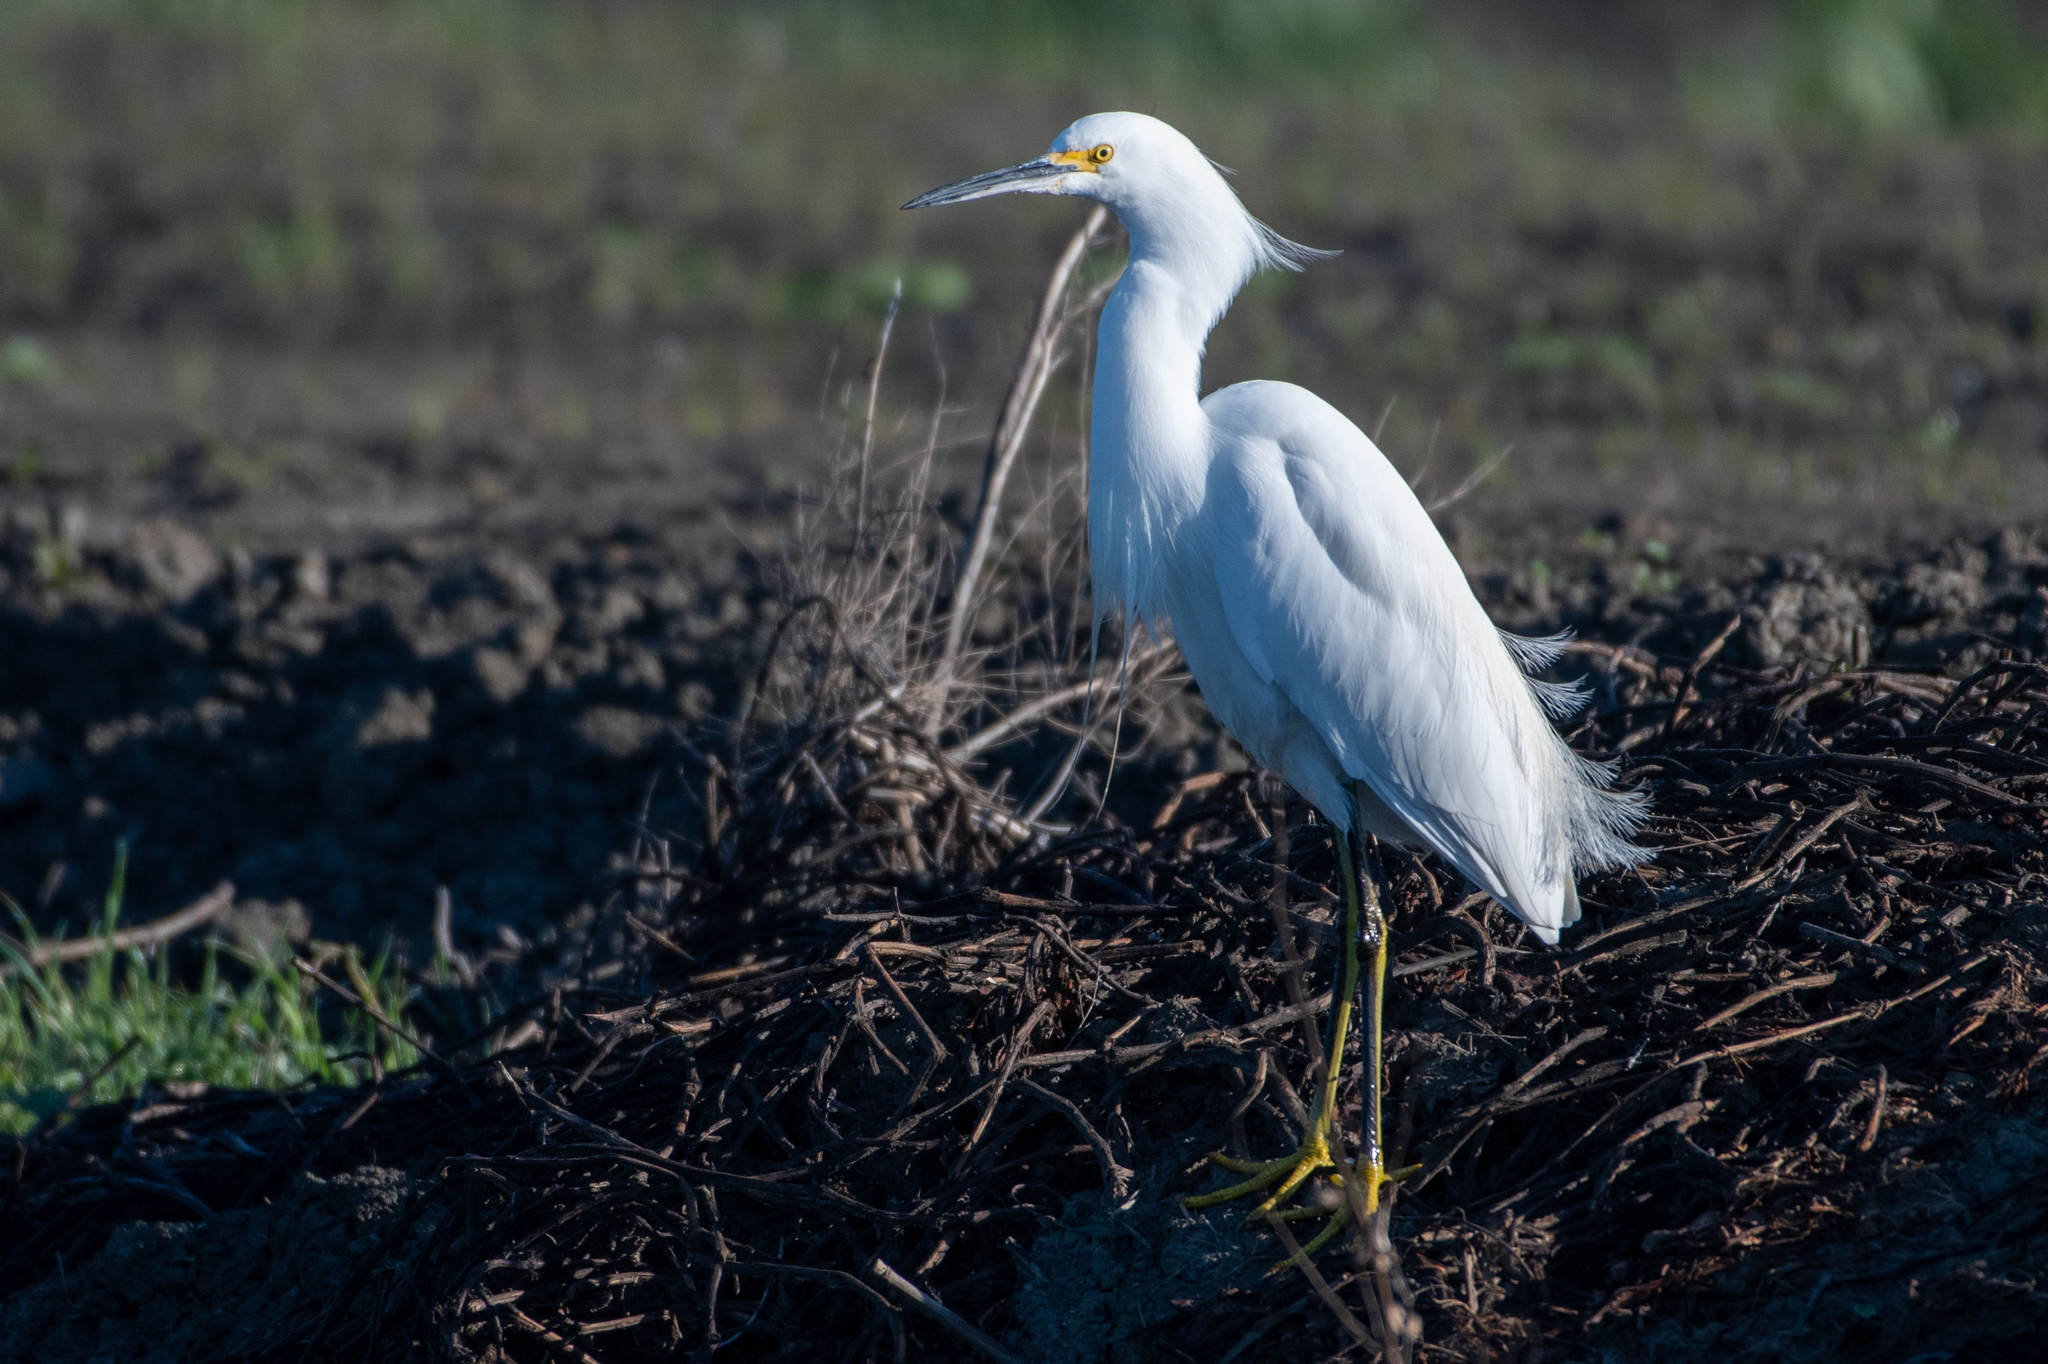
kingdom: Animalia
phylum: Chordata
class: Aves
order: Pelecaniformes
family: Ardeidae
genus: Egretta
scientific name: Egretta thula
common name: Snowy egret
